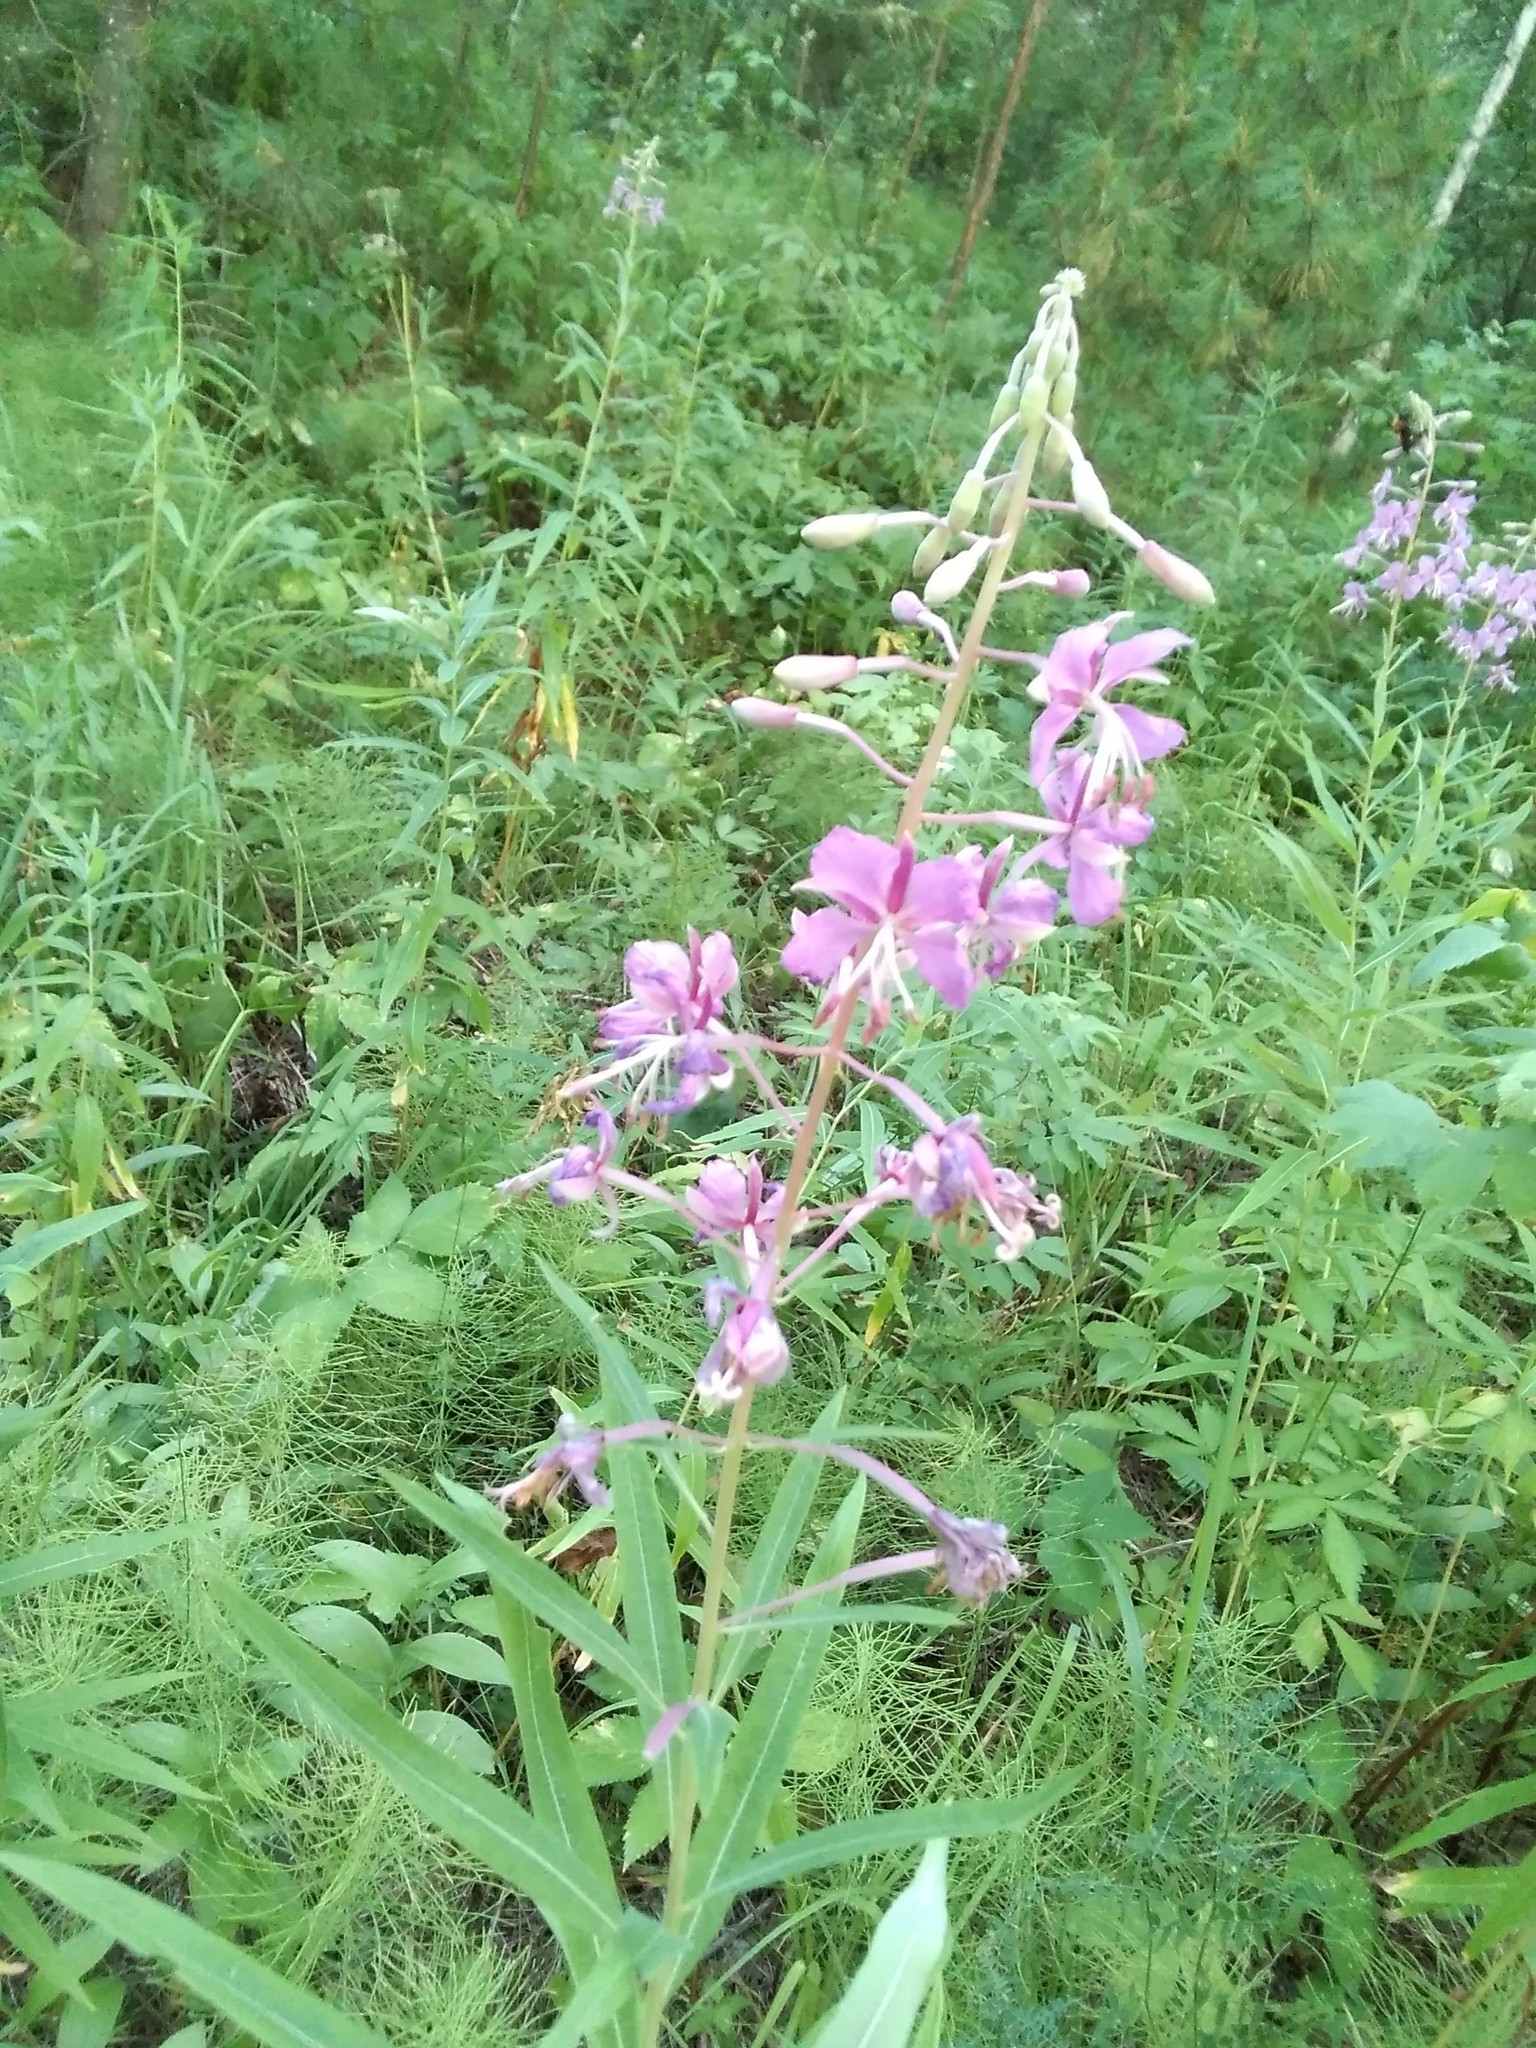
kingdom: Plantae
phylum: Tracheophyta
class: Magnoliopsida
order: Myrtales
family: Onagraceae
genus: Chamaenerion
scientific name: Chamaenerion angustifolium
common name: Fireweed
